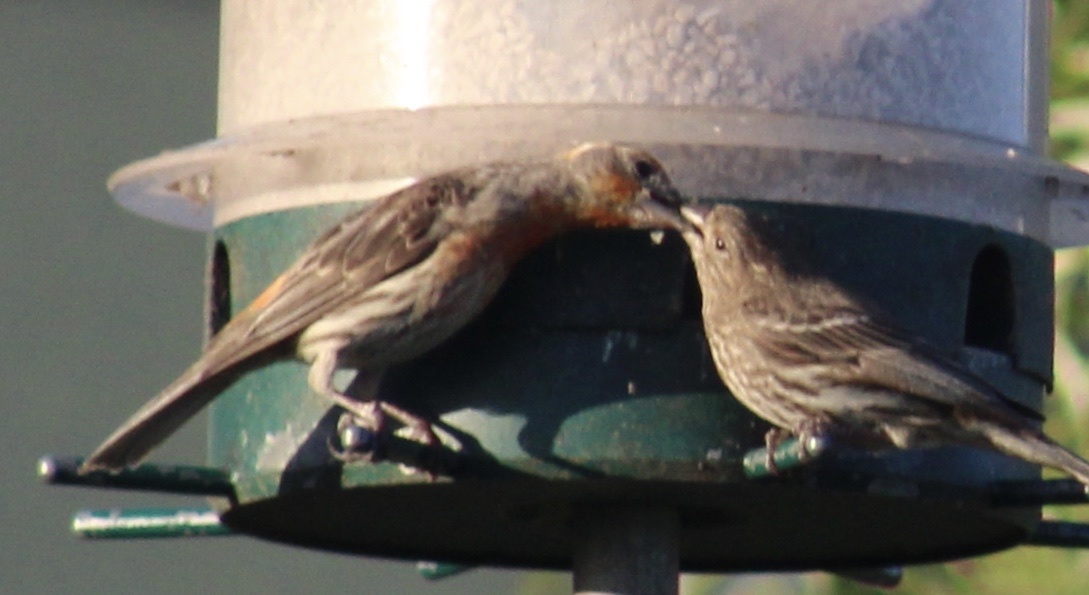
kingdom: Animalia
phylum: Chordata
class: Aves
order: Passeriformes
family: Fringillidae
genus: Haemorhous
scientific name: Haemorhous mexicanus
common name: House finch
